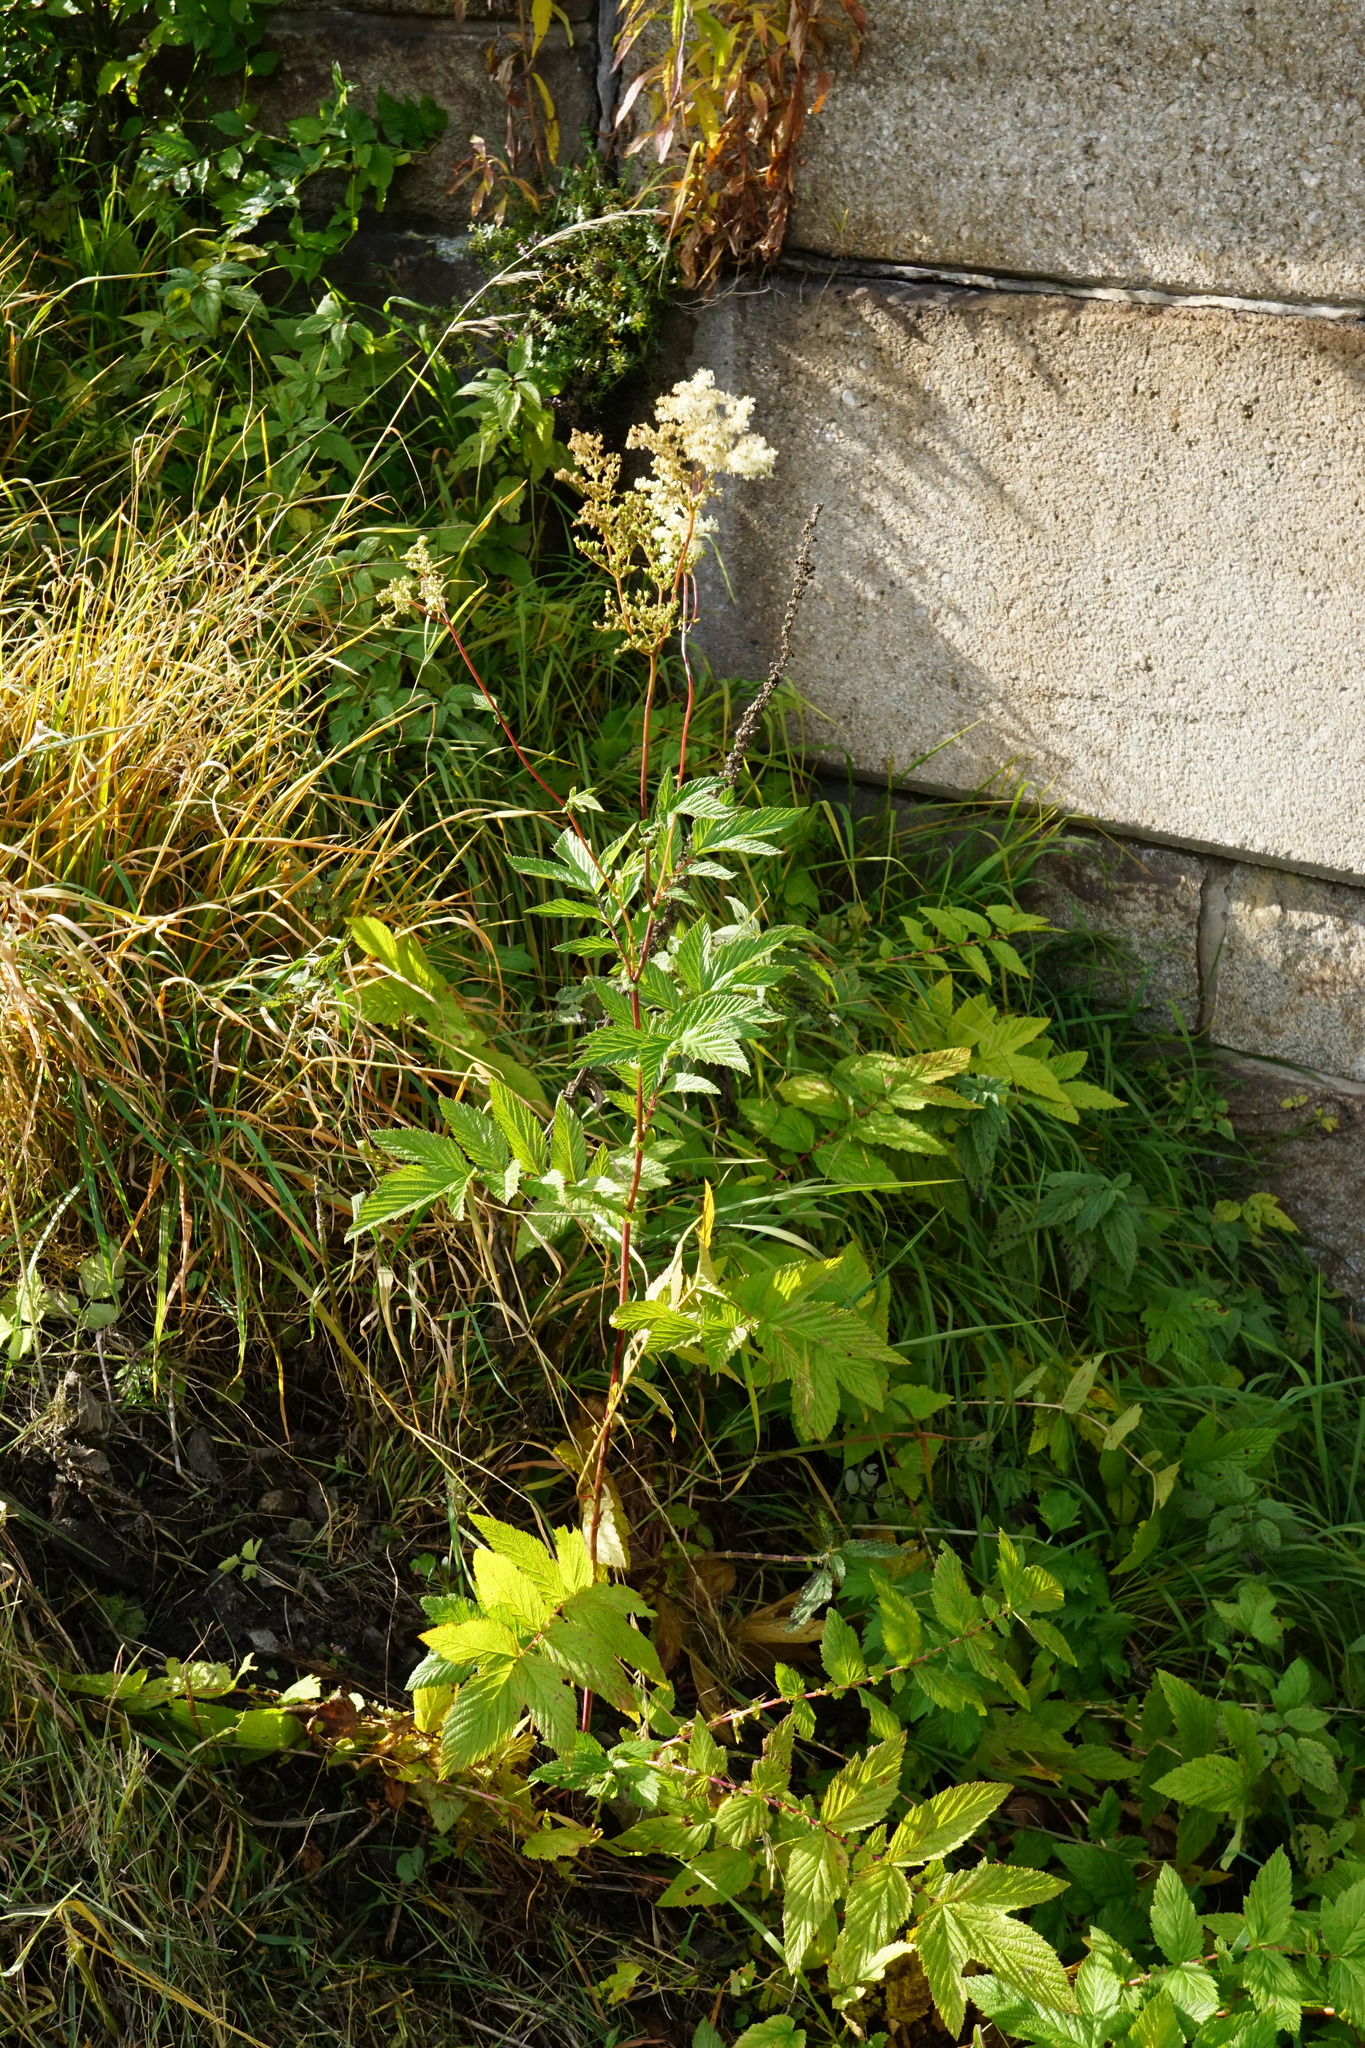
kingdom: Plantae
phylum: Tracheophyta
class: Magnoliopsida
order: Rosales
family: Rosaceae
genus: Filipendula
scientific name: Filipendula ulmaria
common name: Meadowsweet
